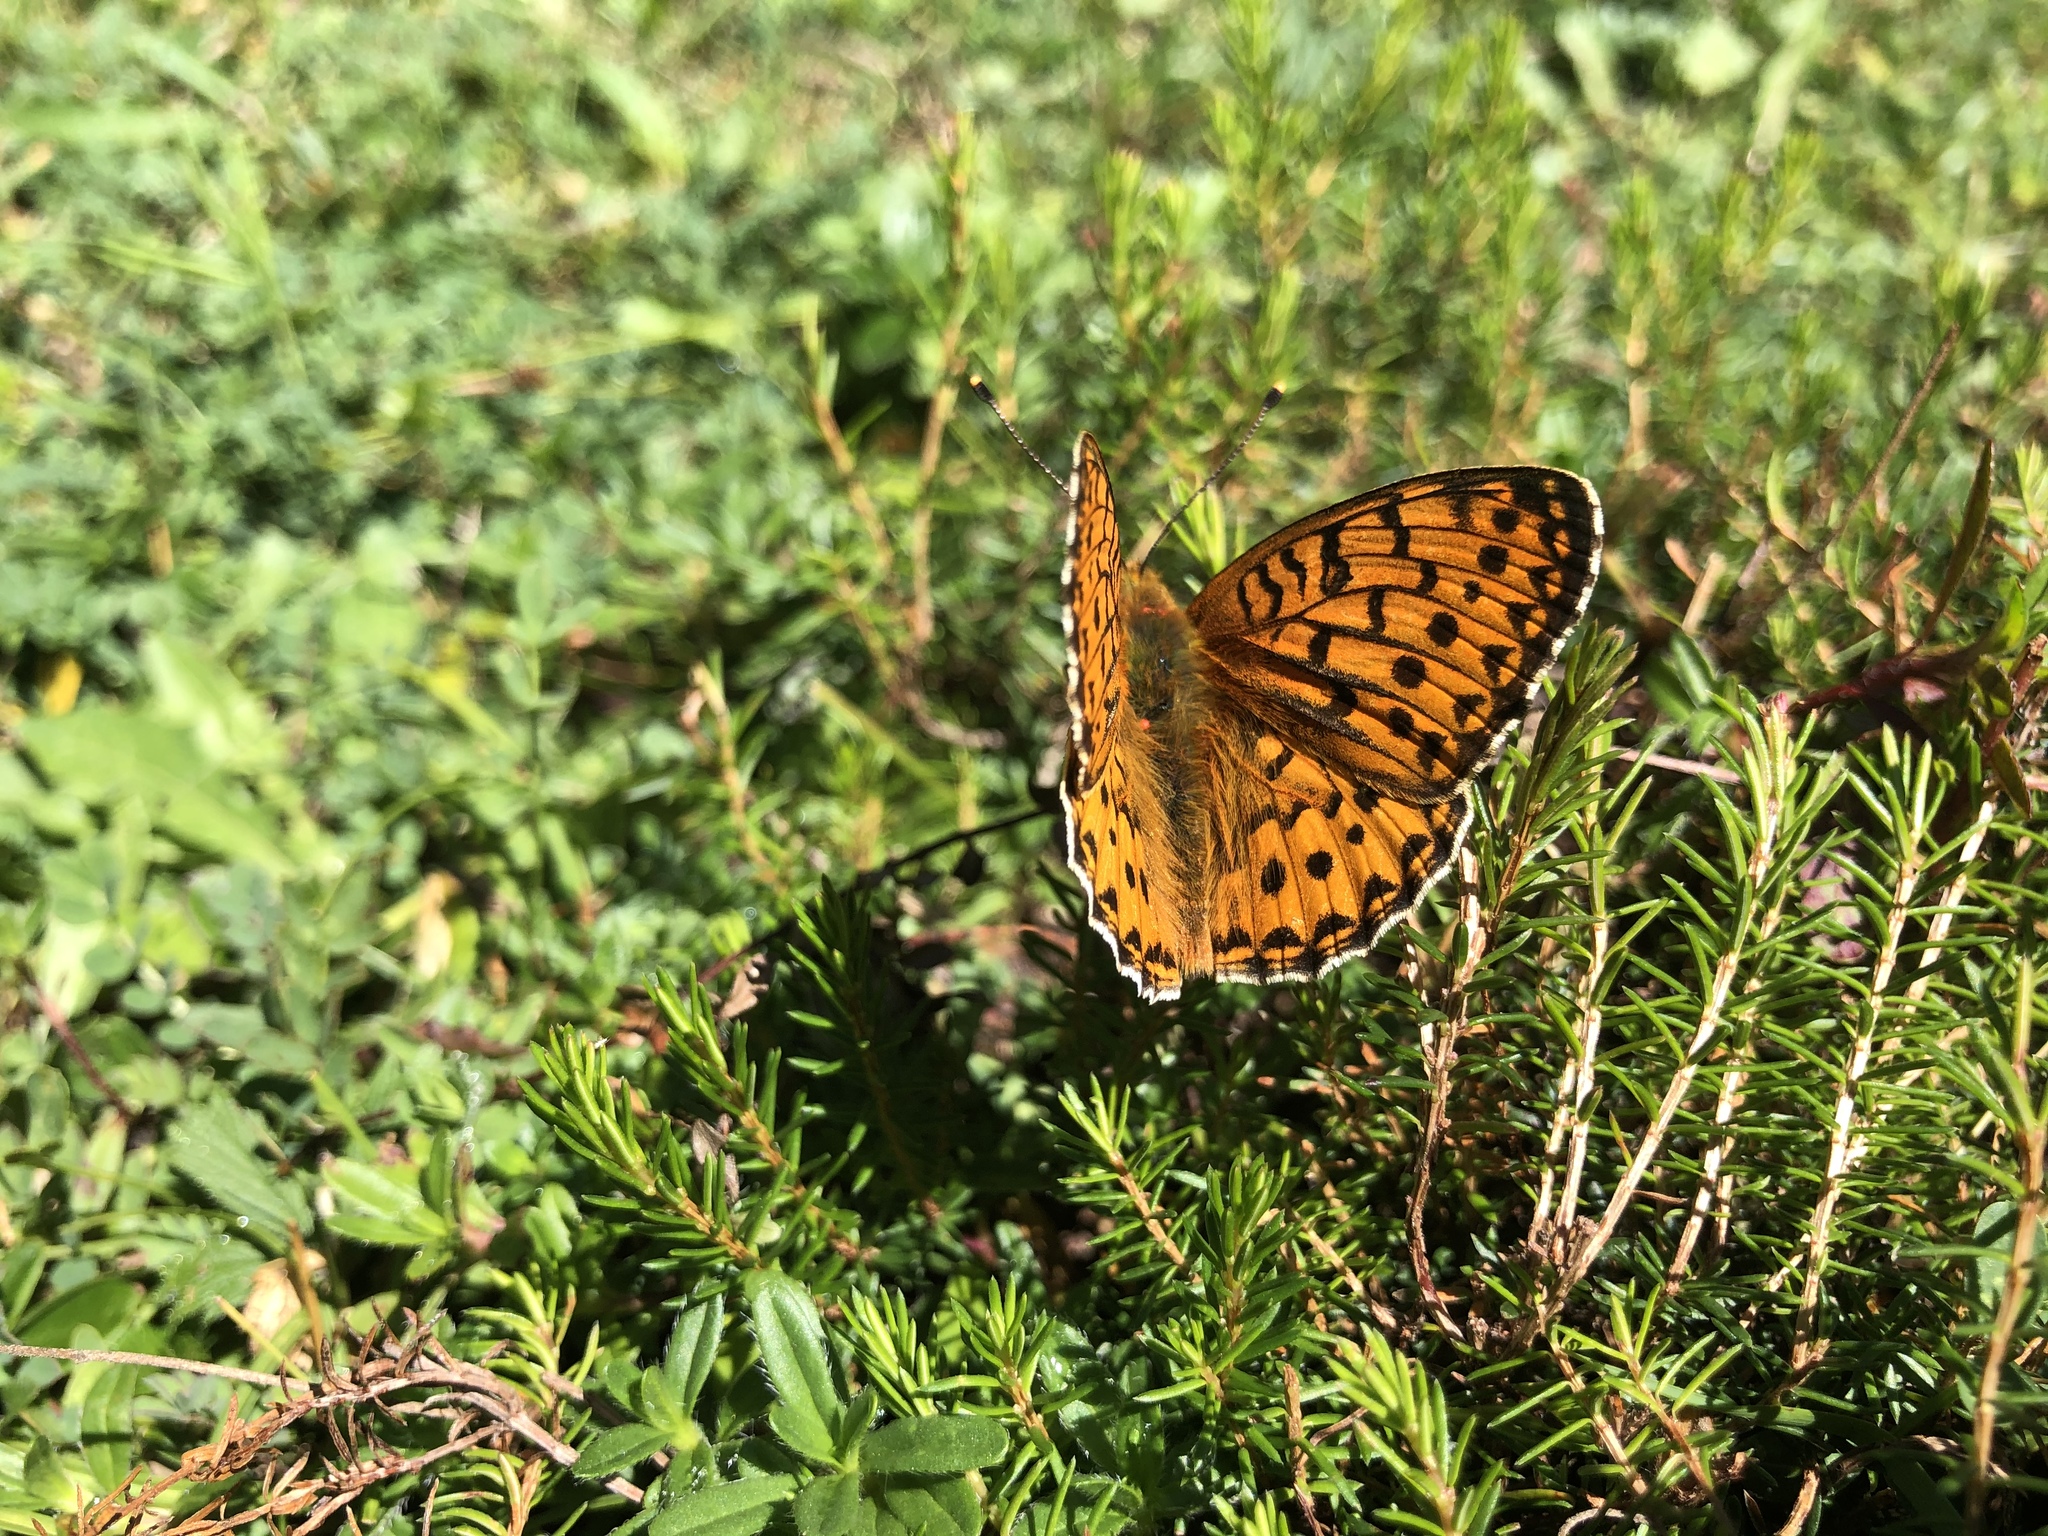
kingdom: Animalia
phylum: Arthropoda
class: Insecta
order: Lepidoptera
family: Nymphalidae
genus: Speyeria
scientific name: Speyeria aglaja
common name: Dark green fritillary
